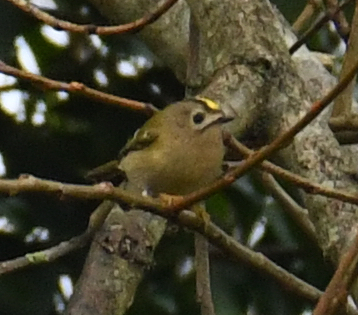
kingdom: Animalia
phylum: Chordata
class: Aves
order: Passeriformes
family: Regulidae
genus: Regulus
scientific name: Regulus regulus
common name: Goldcrest
